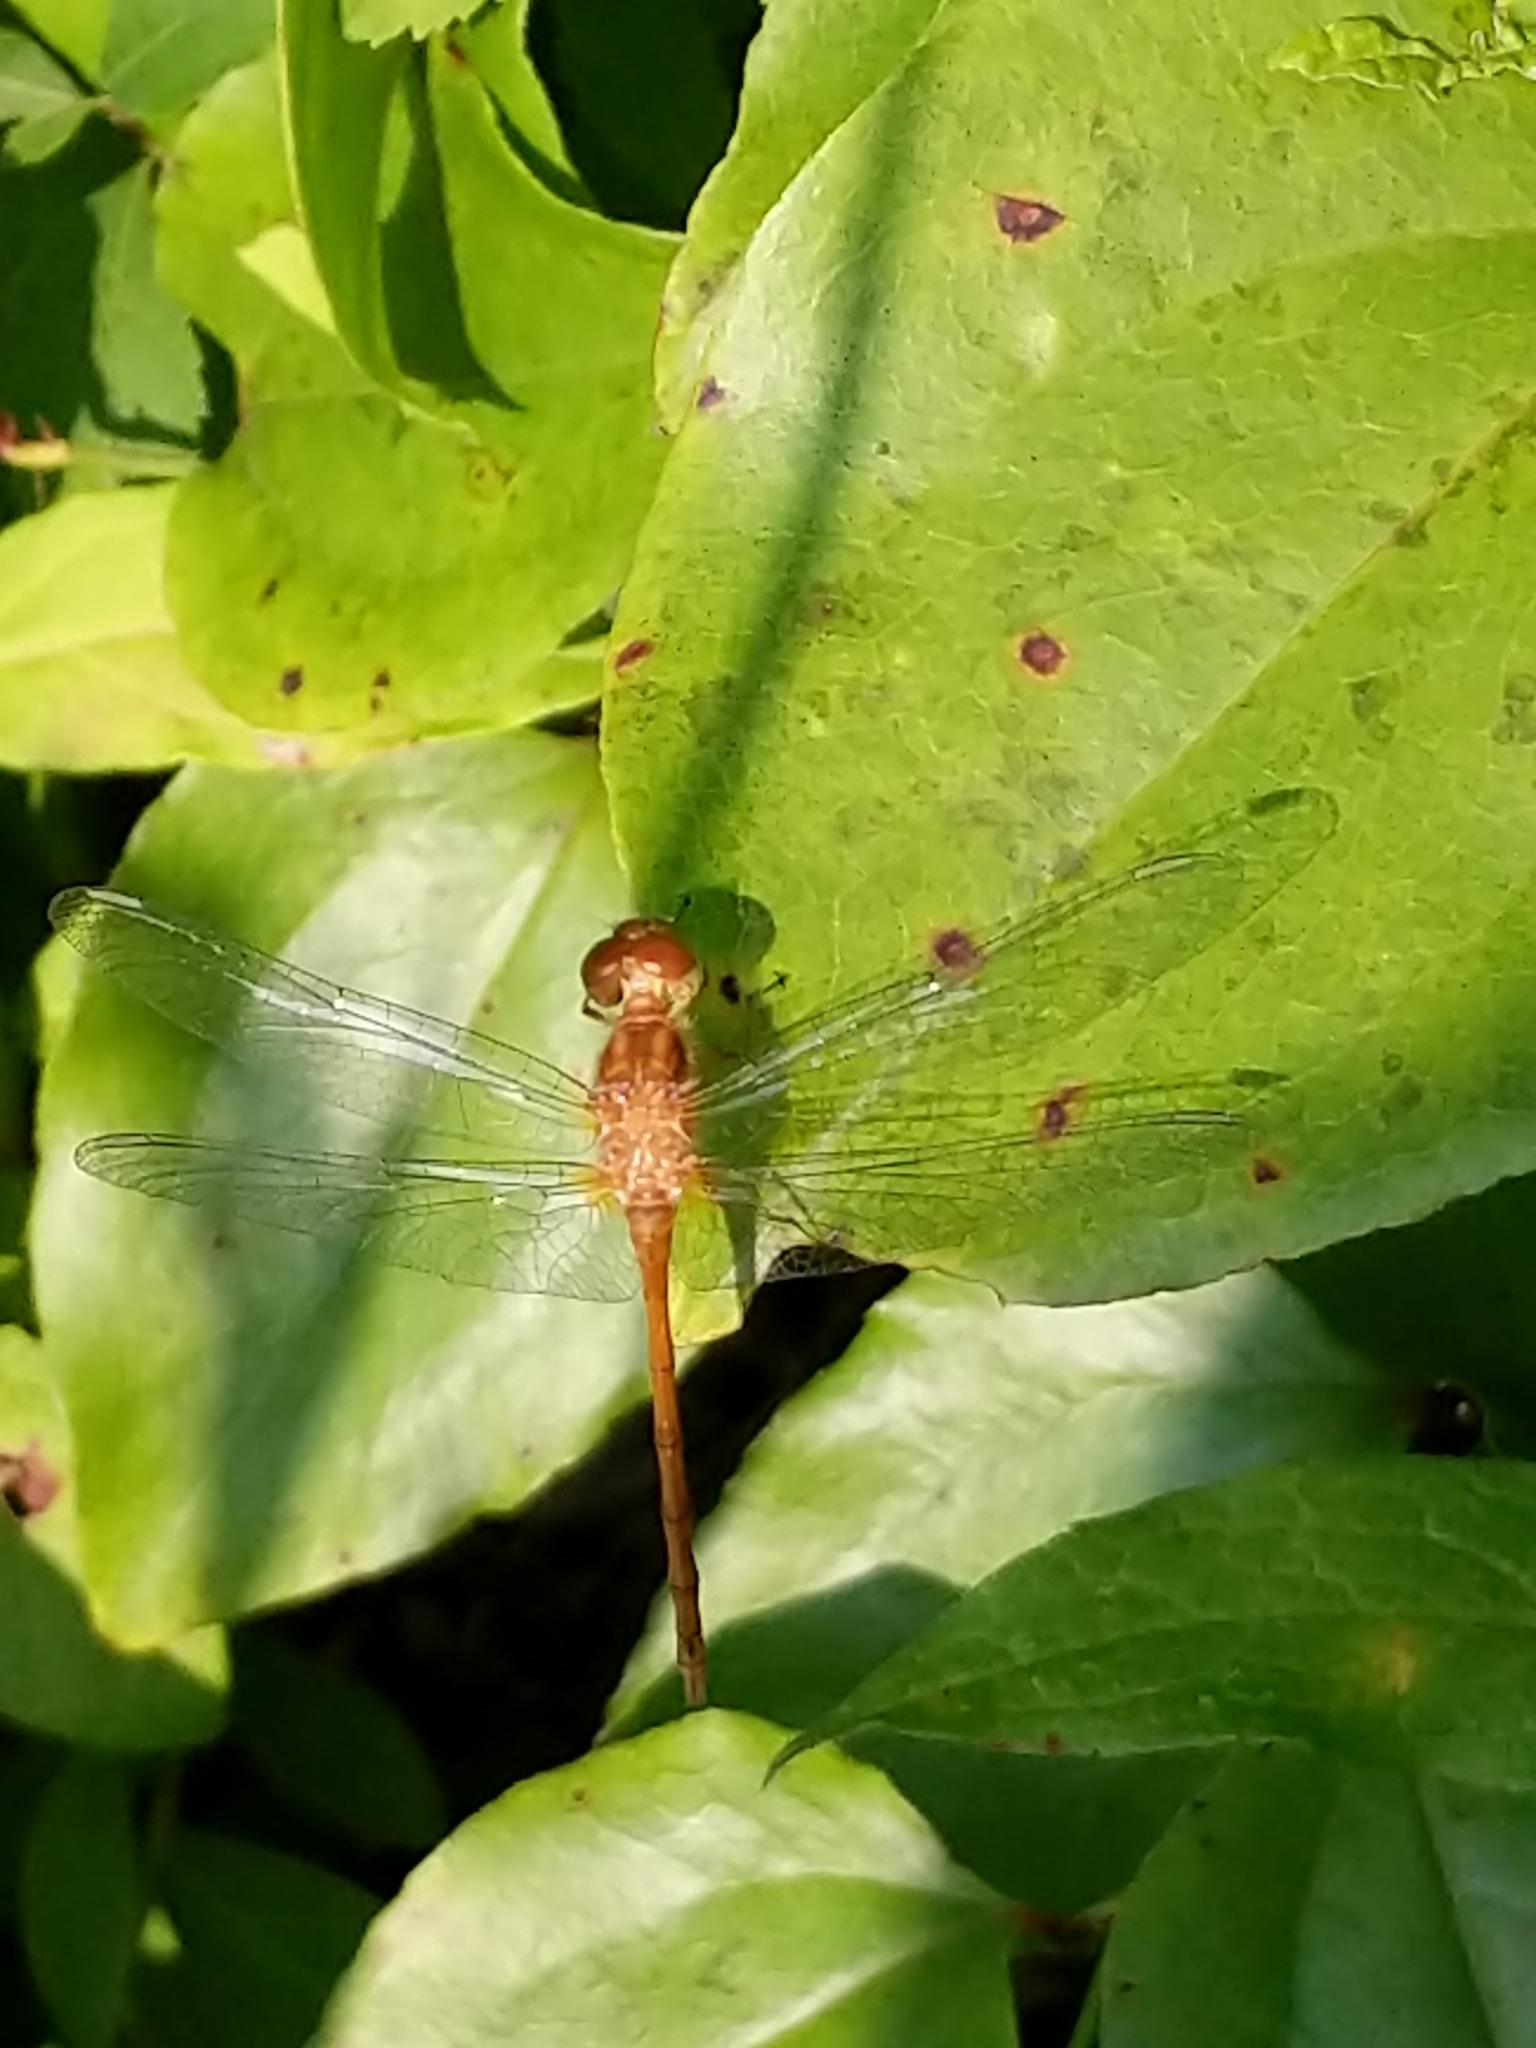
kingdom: Animalia
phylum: Arthropoda
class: Insecta
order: Odonata
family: Libellulidae
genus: Sympetrum
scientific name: Sympetrum vicinum
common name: Autumn meadowhawk
